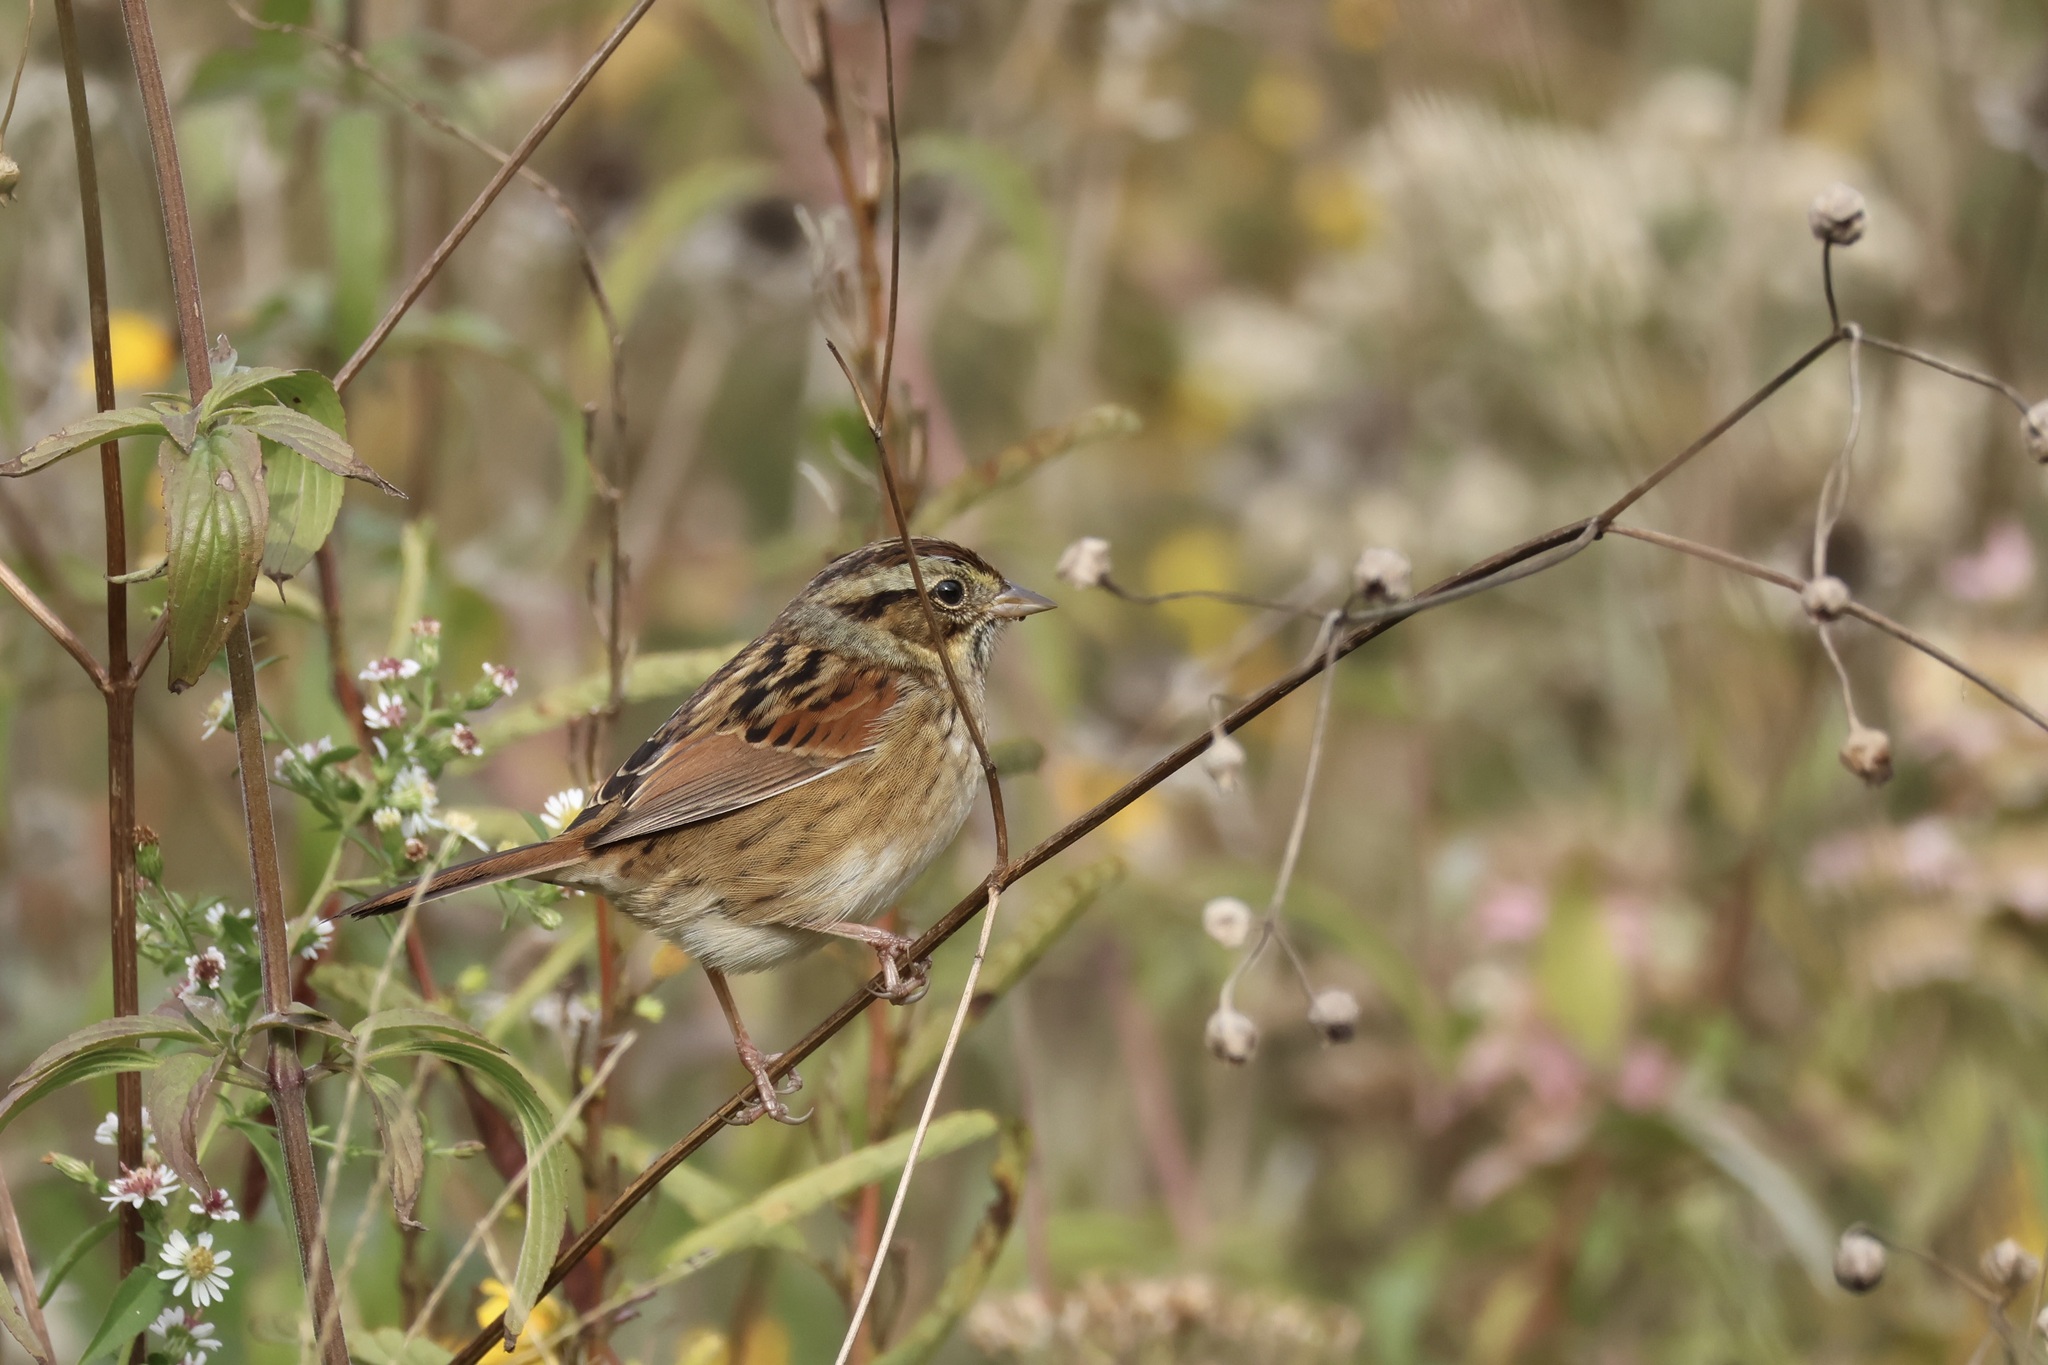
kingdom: Animalia
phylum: Chordata
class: Aves
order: Passeriformes
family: Passerellidae
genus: Melospiza
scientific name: Melospiza georgiana
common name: Swamp sparrow
